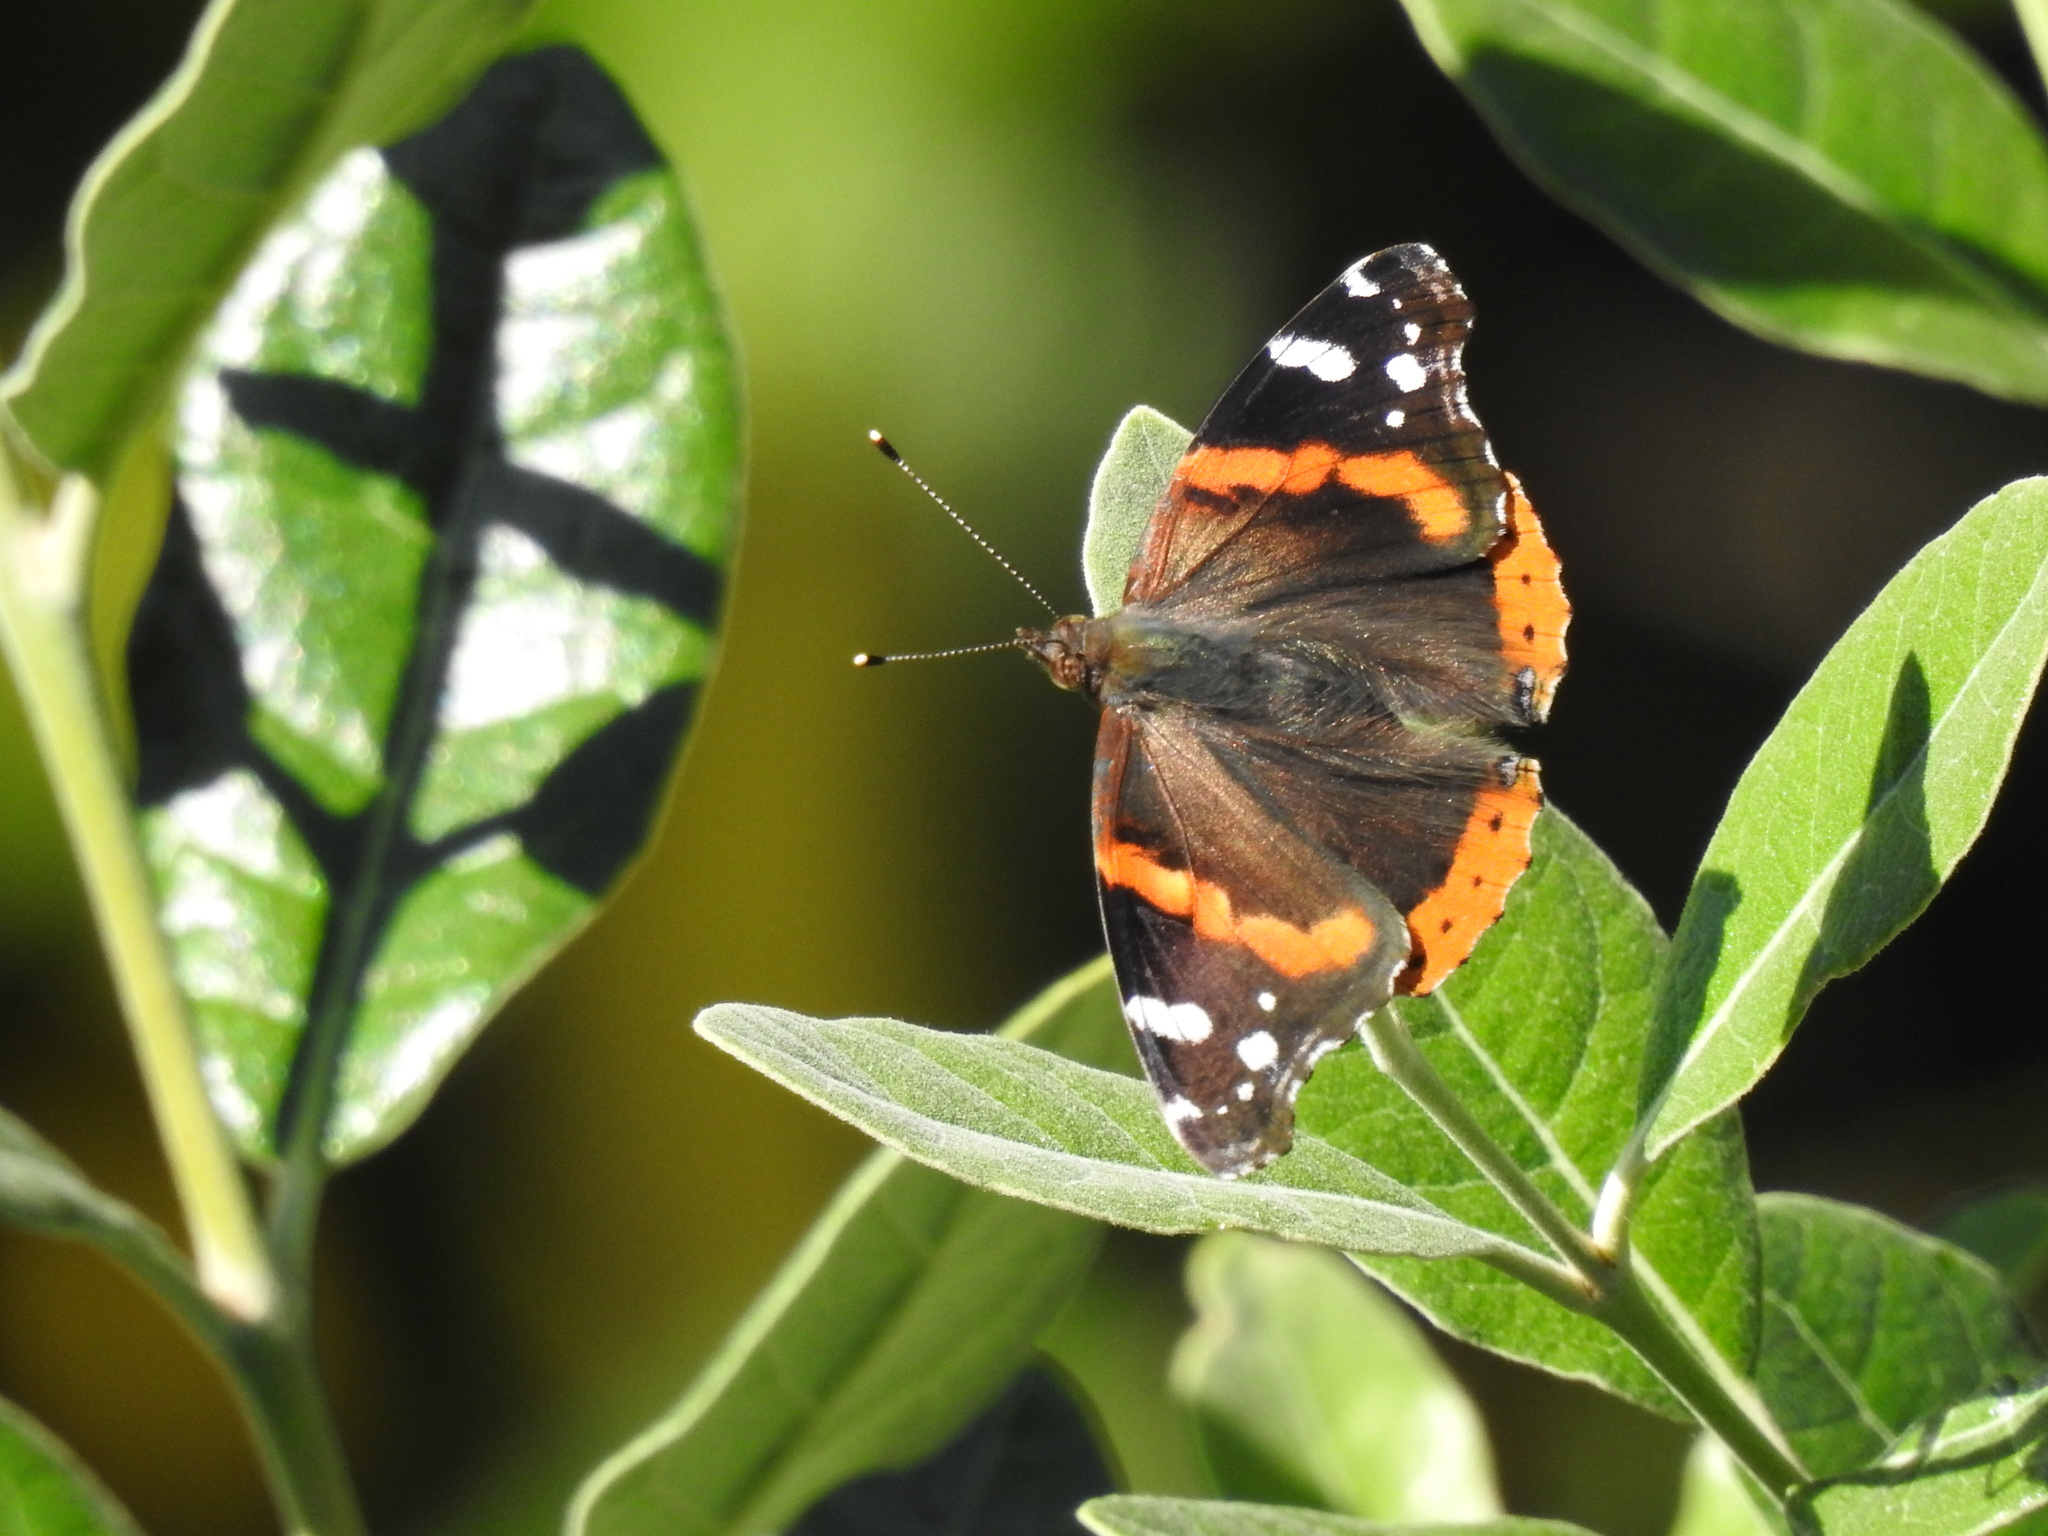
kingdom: Animalia
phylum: Arthropoda
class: Insecta
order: Lepidoptera
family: Nymphalidae
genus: Vanessa
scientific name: Vanessa atalanta
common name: Red admiral
